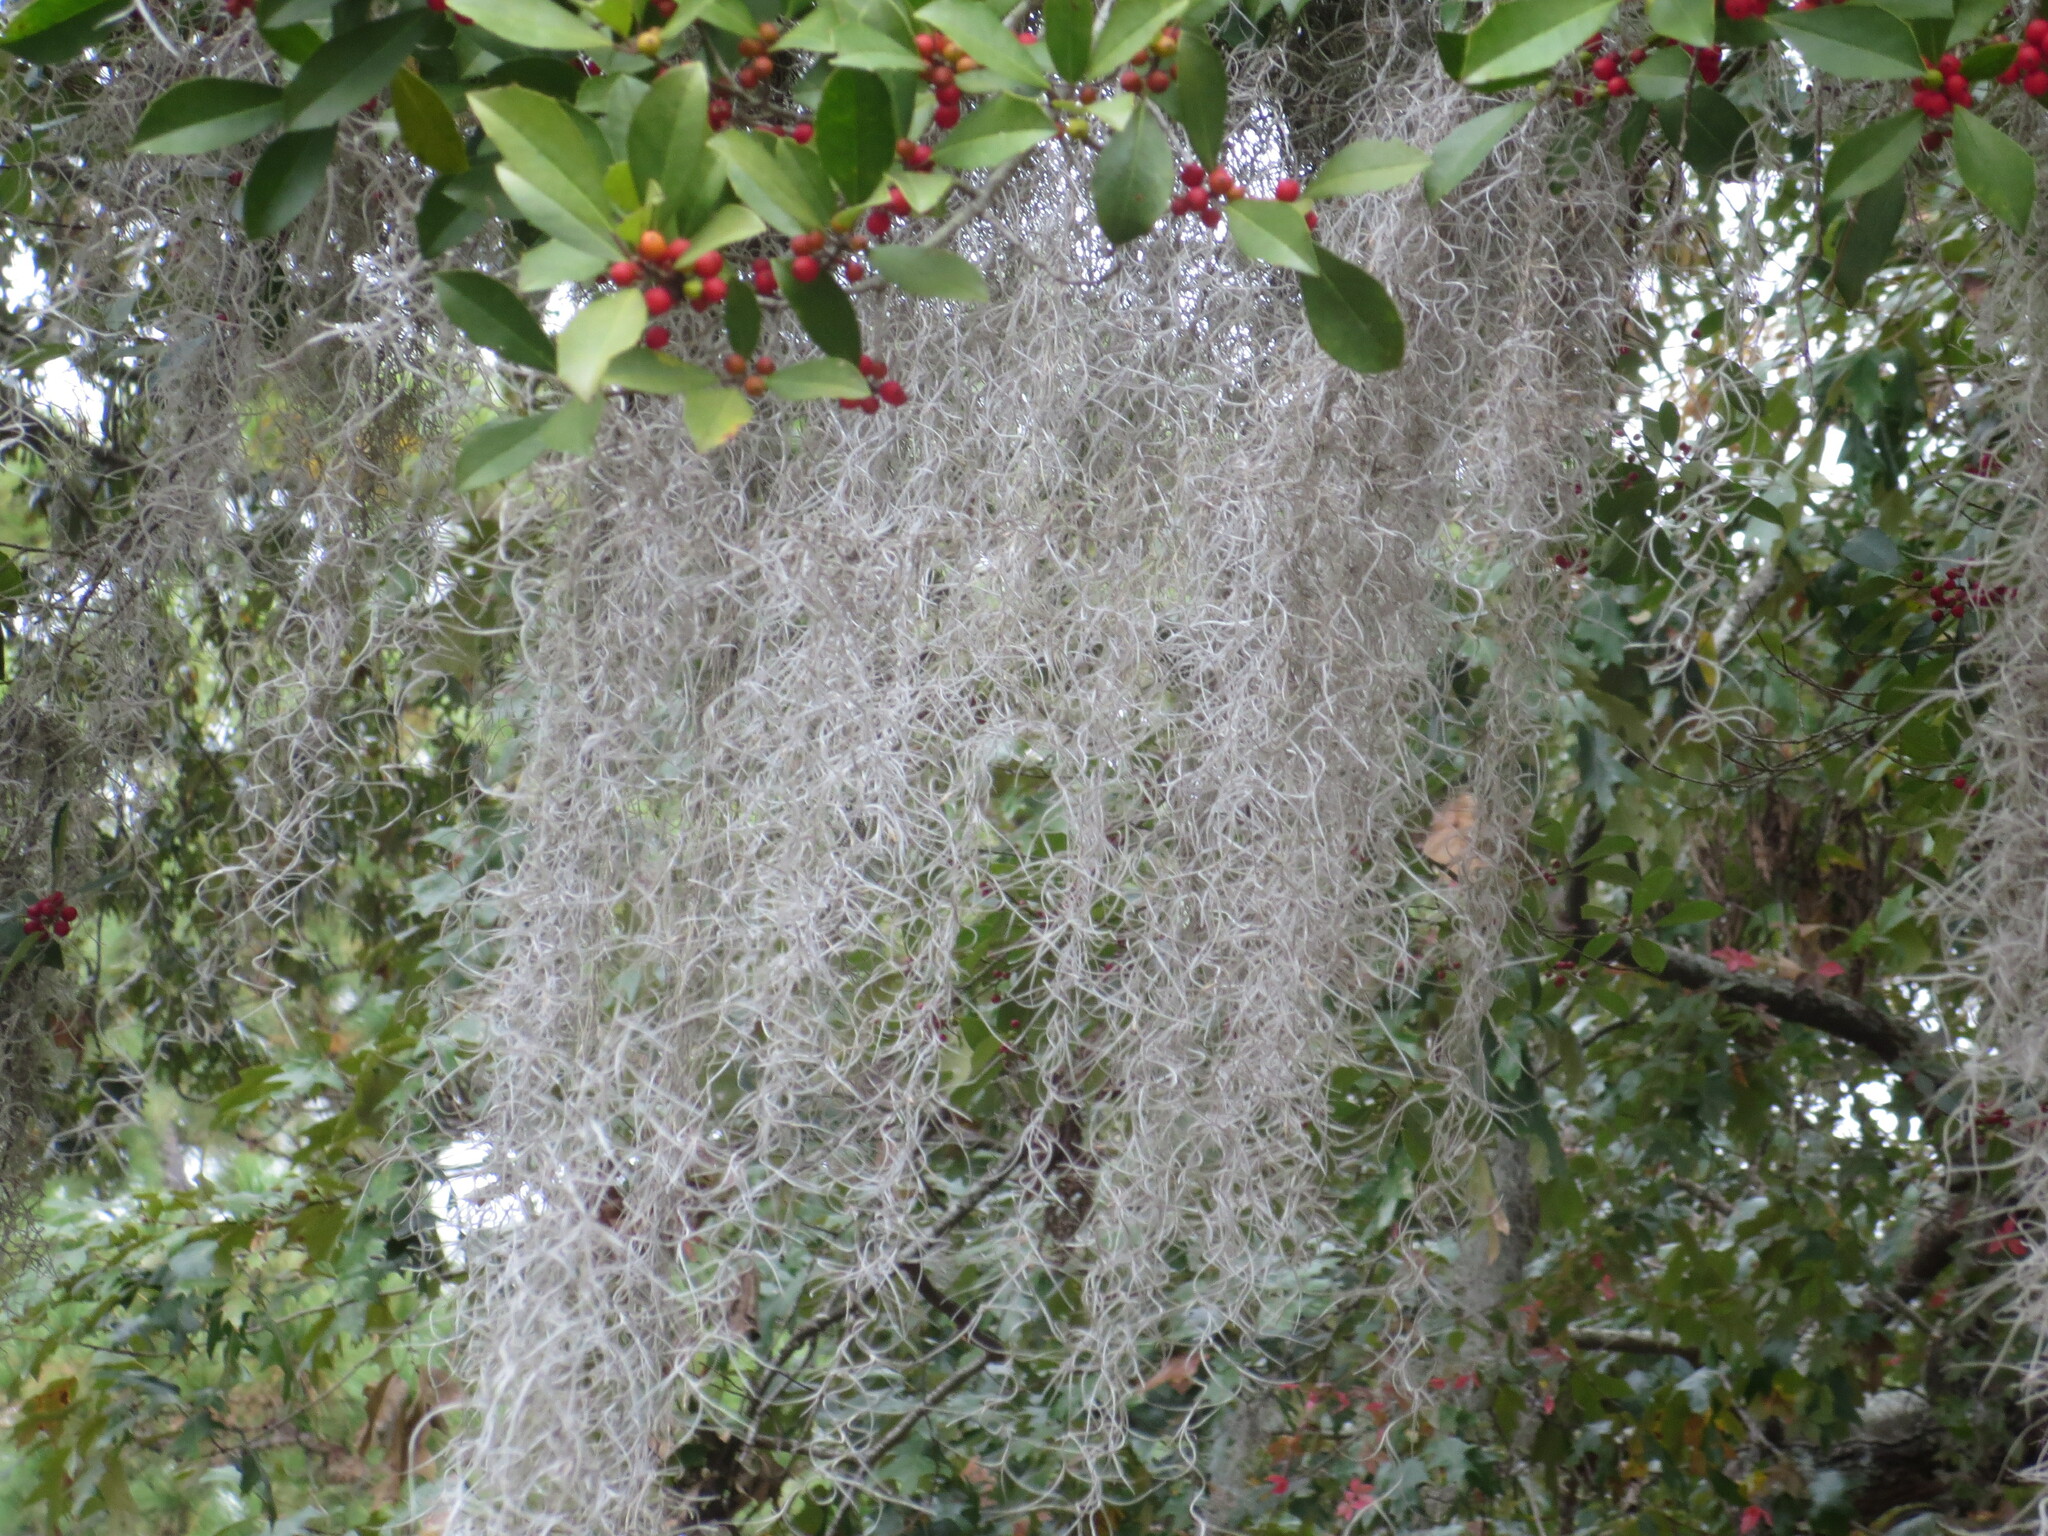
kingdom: Plantae
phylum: Tracheophyta
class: Liliopsida
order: Poales
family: Bromeliaceae
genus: Tillandsia
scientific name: Tillandsia usneoides
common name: Spanish moss
